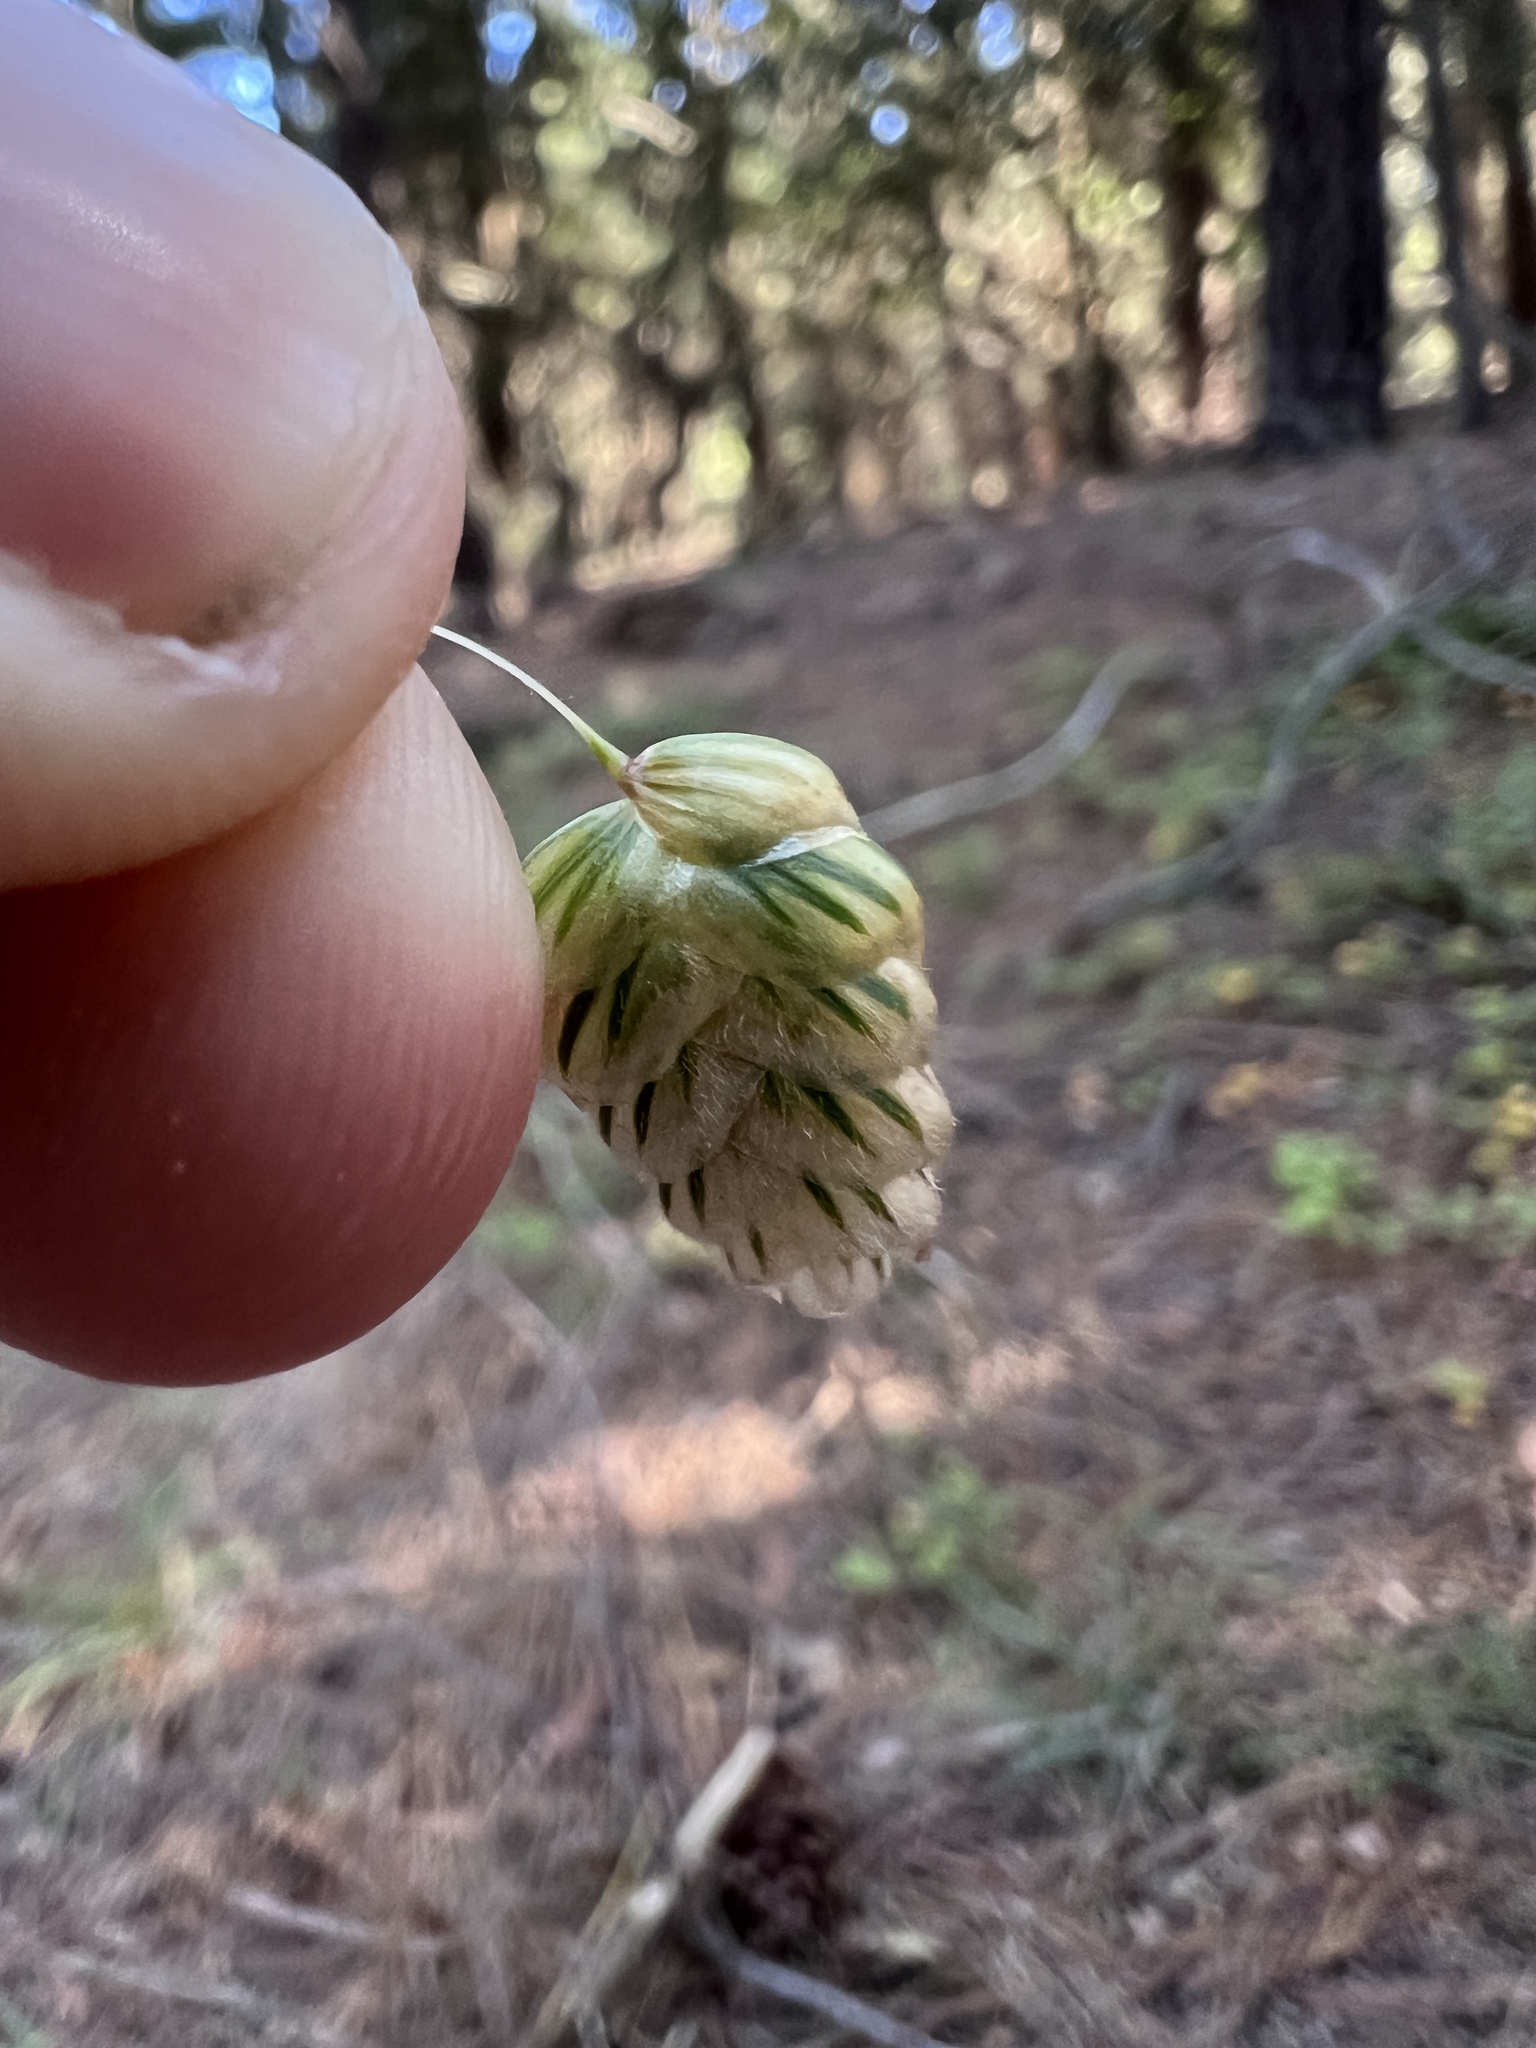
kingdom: Plantae
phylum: Tracheophyta
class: Liliopsida
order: Poales
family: Poaceae
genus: Briza
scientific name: Briza maxima
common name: Big quakinggrass
